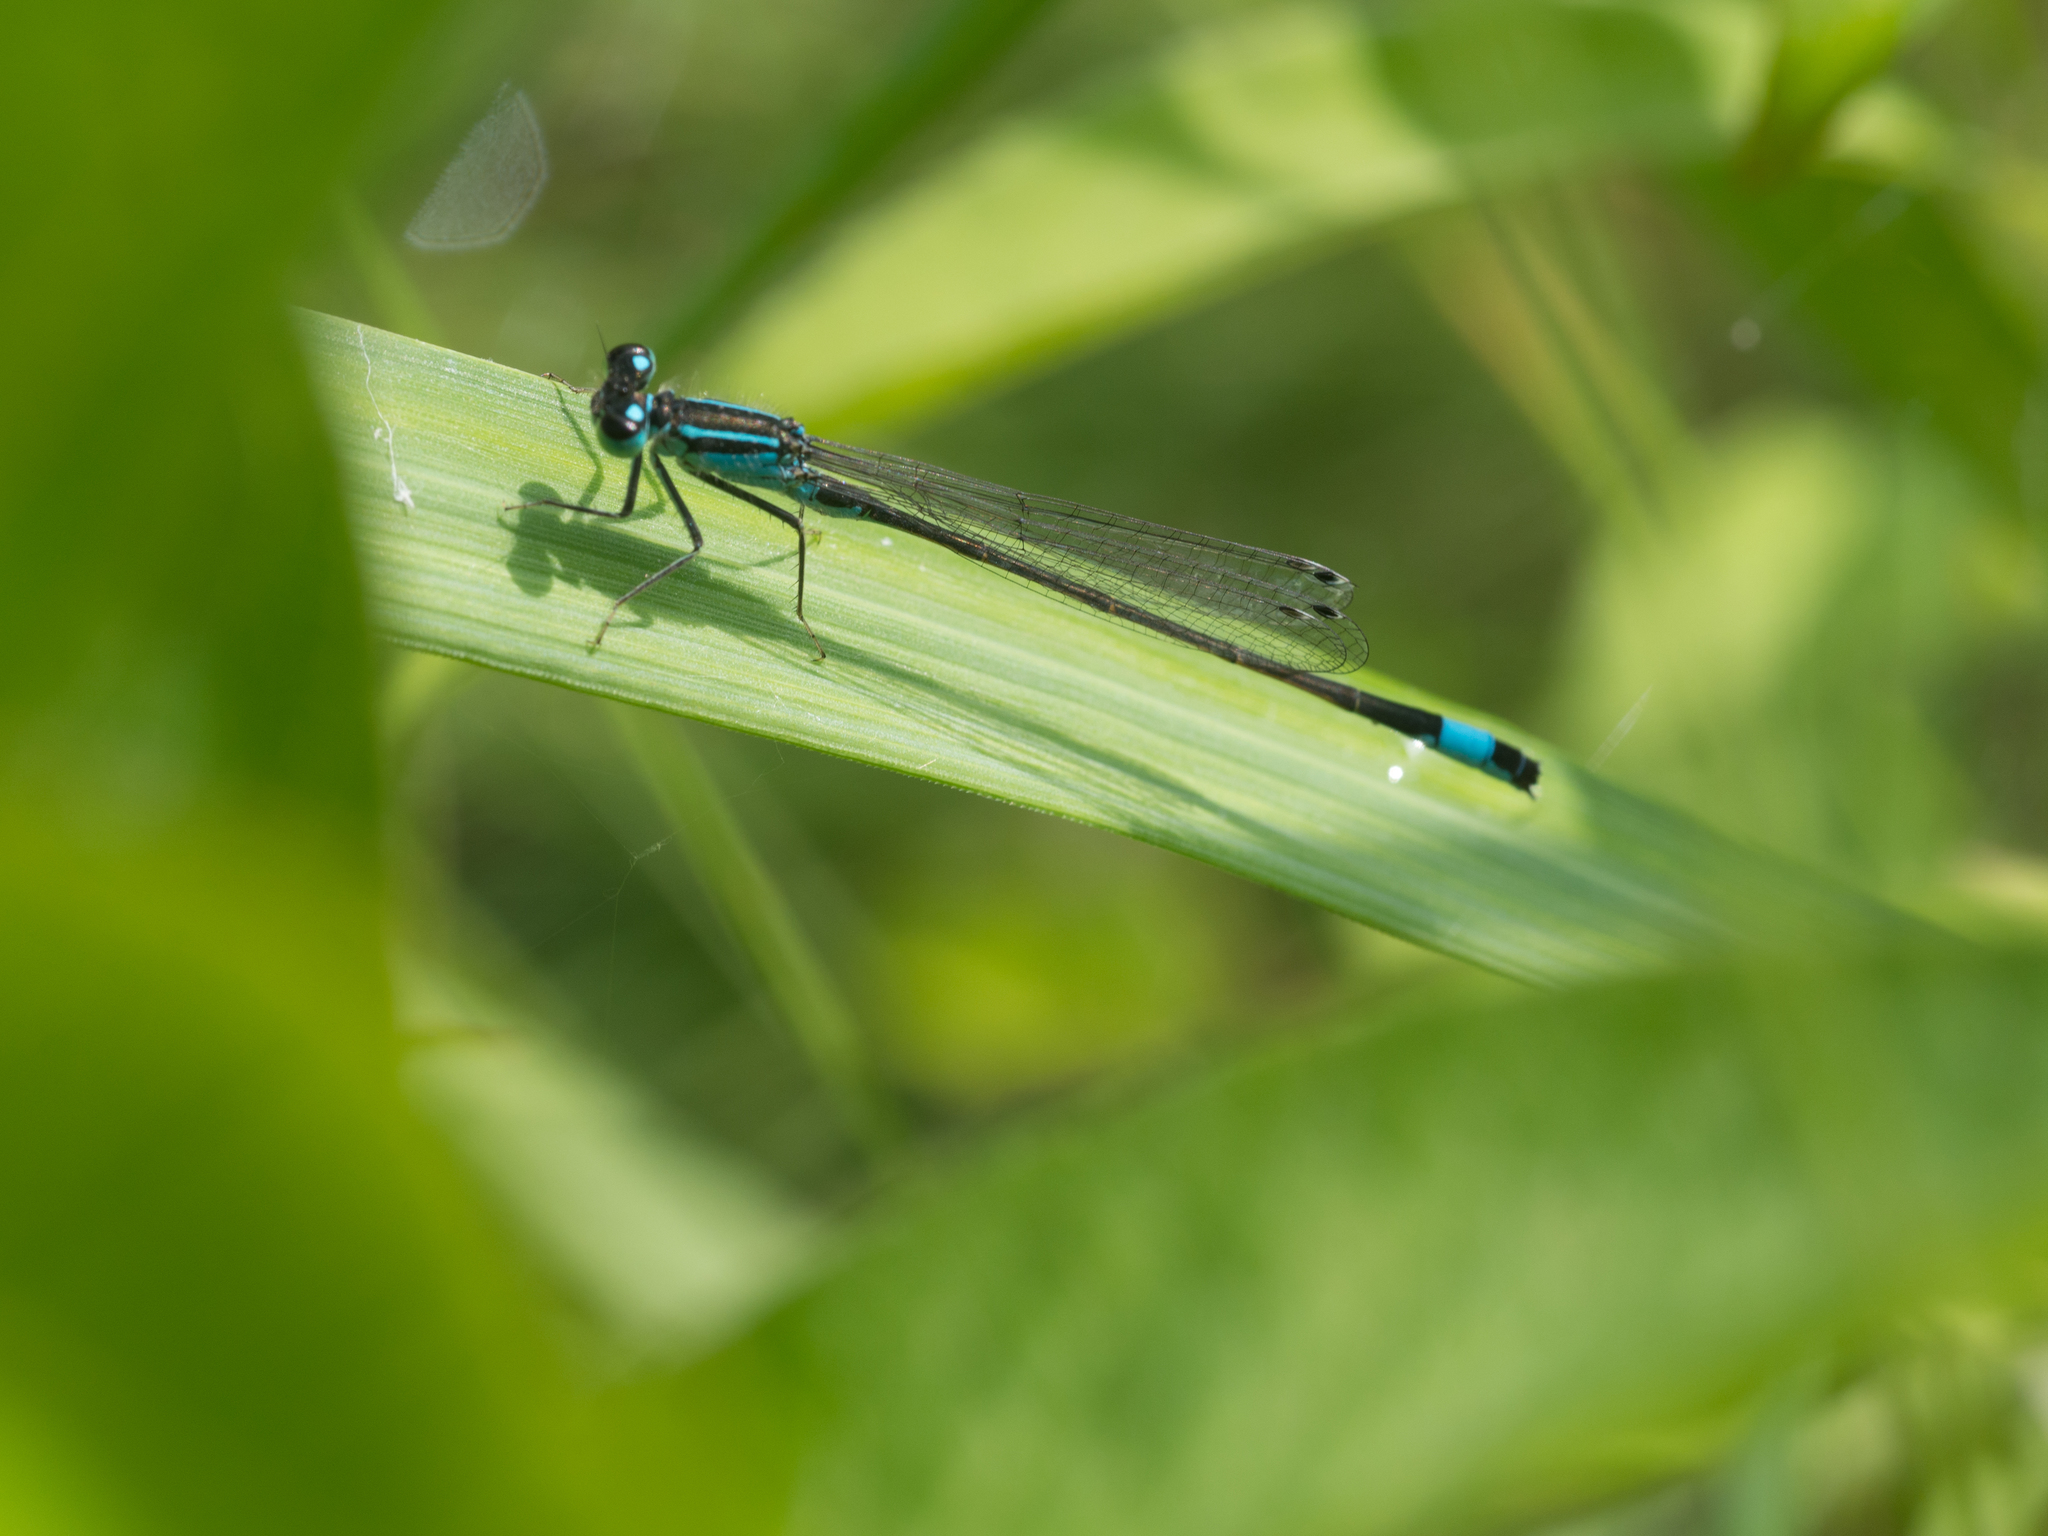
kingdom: Animalia
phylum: Arthropoda
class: Insecta
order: Odonata
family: Coenagrionidae
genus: Ischnura
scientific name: Ischnura elegans
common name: Blue-tailed damselfly
